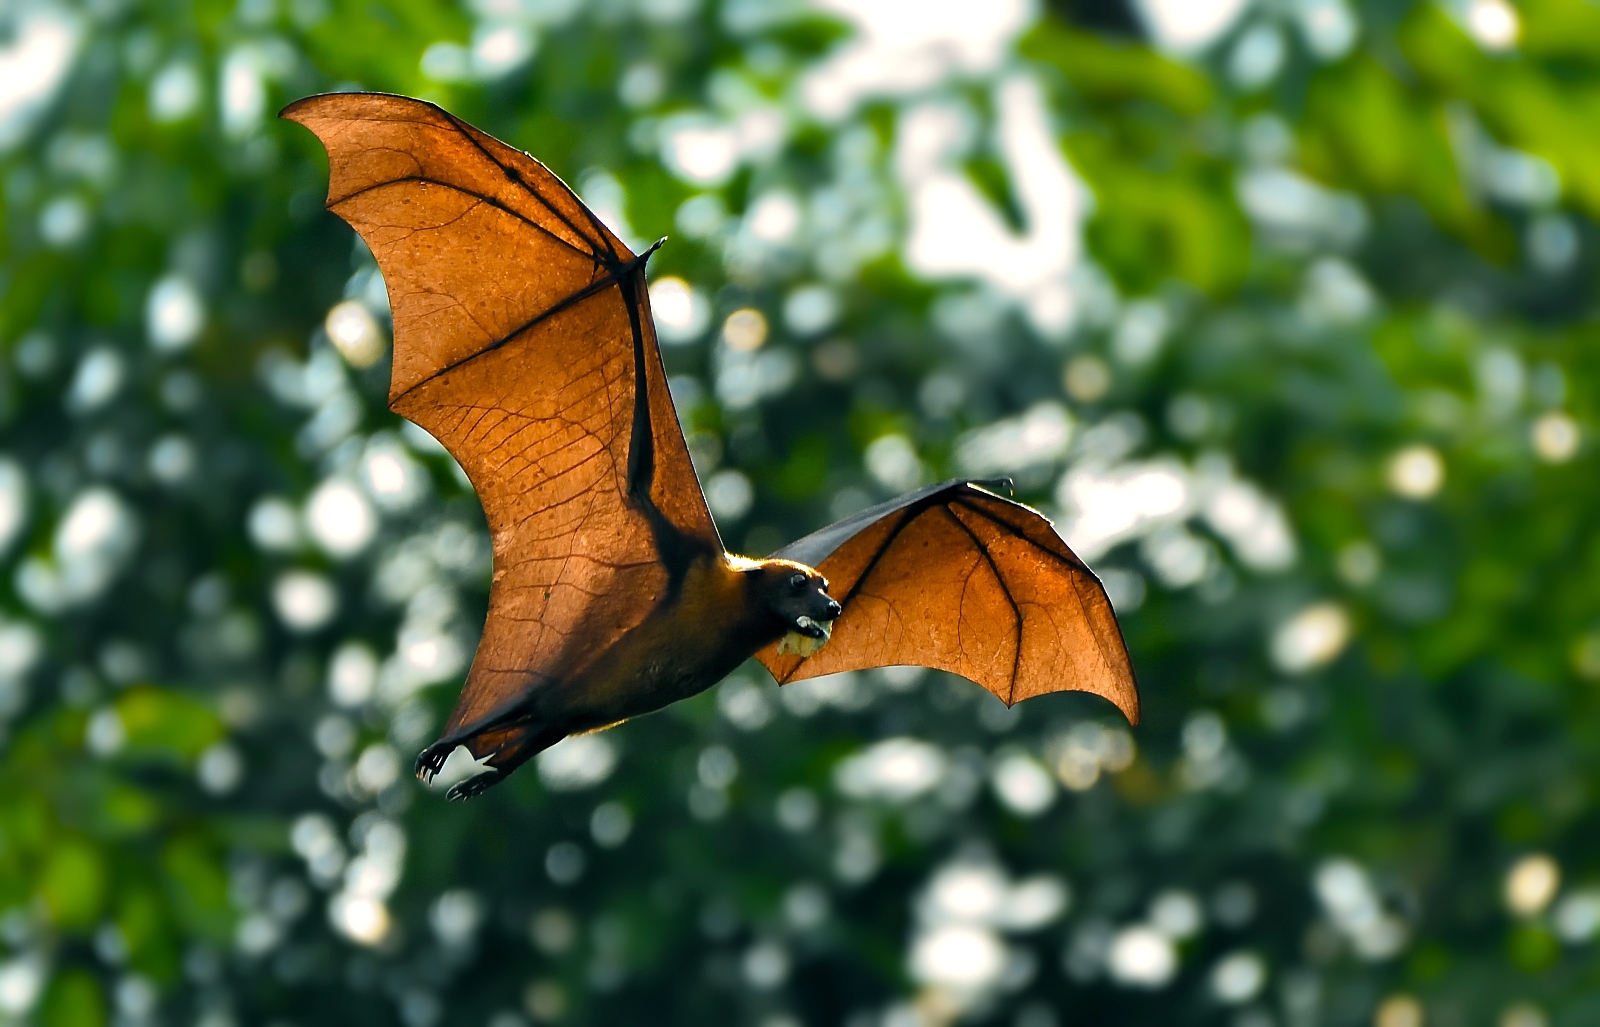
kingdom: Animalia
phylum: Chordata
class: Mammalia
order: Chiroptera
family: Pteropodidae
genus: Pteropus
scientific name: Pteropus vampyrus
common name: Large flying fox
